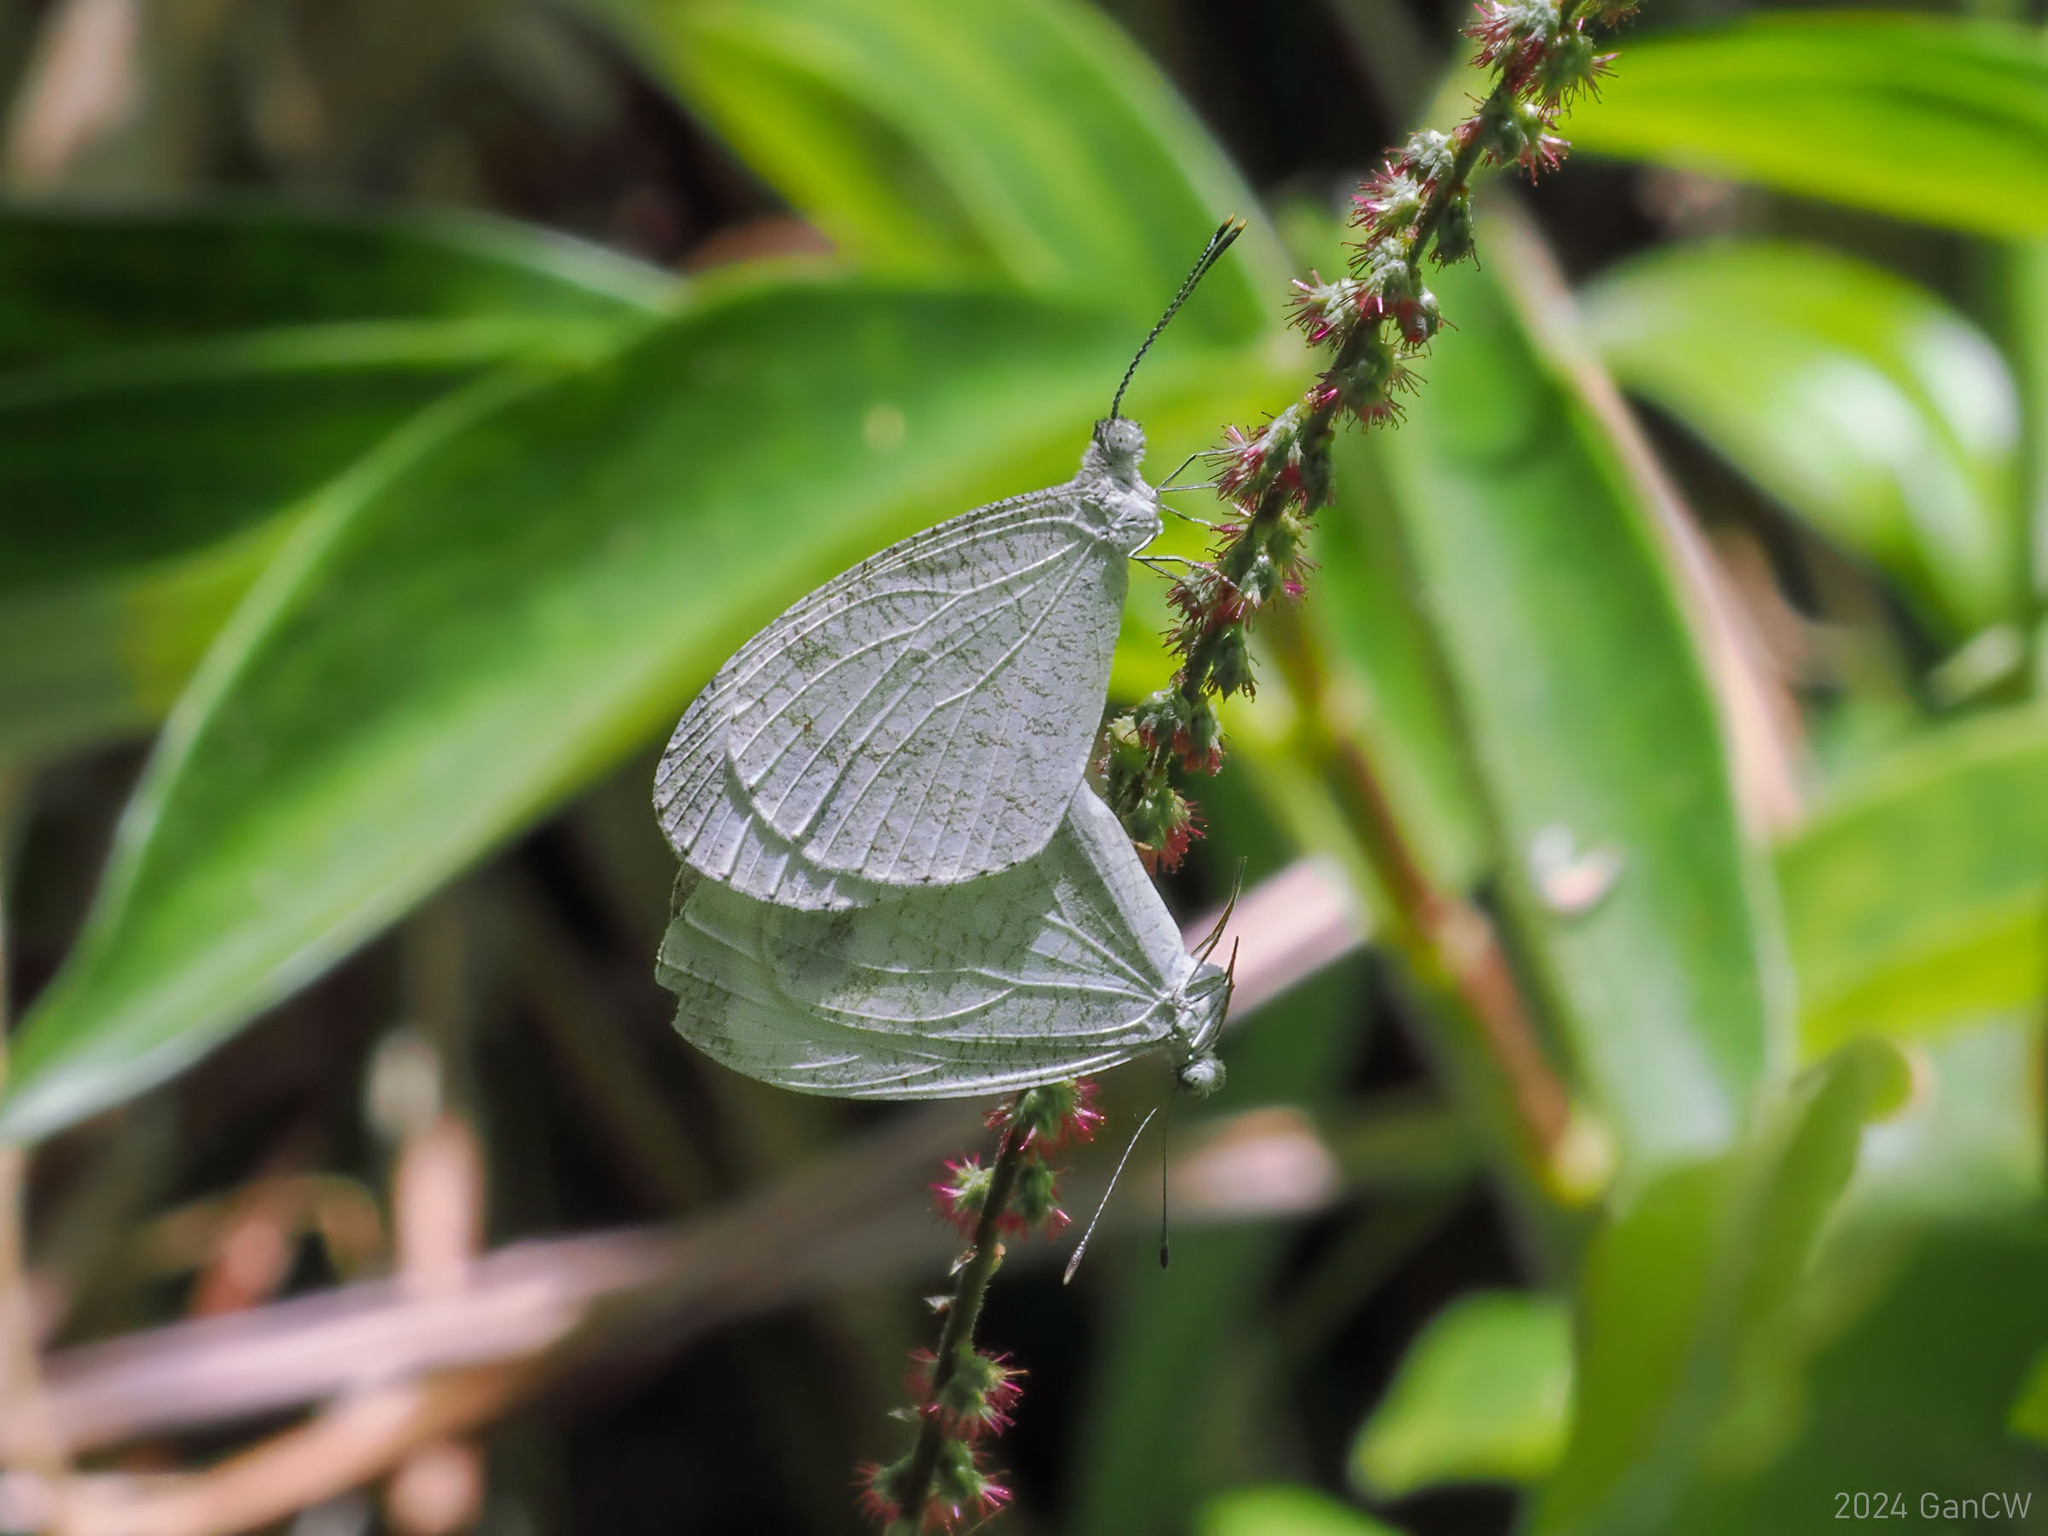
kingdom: Animalia
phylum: Arthropoda
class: Insecta
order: Lepidoptera
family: Pieridae
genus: Leptosia
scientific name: Leptosia nina
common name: Psyche
